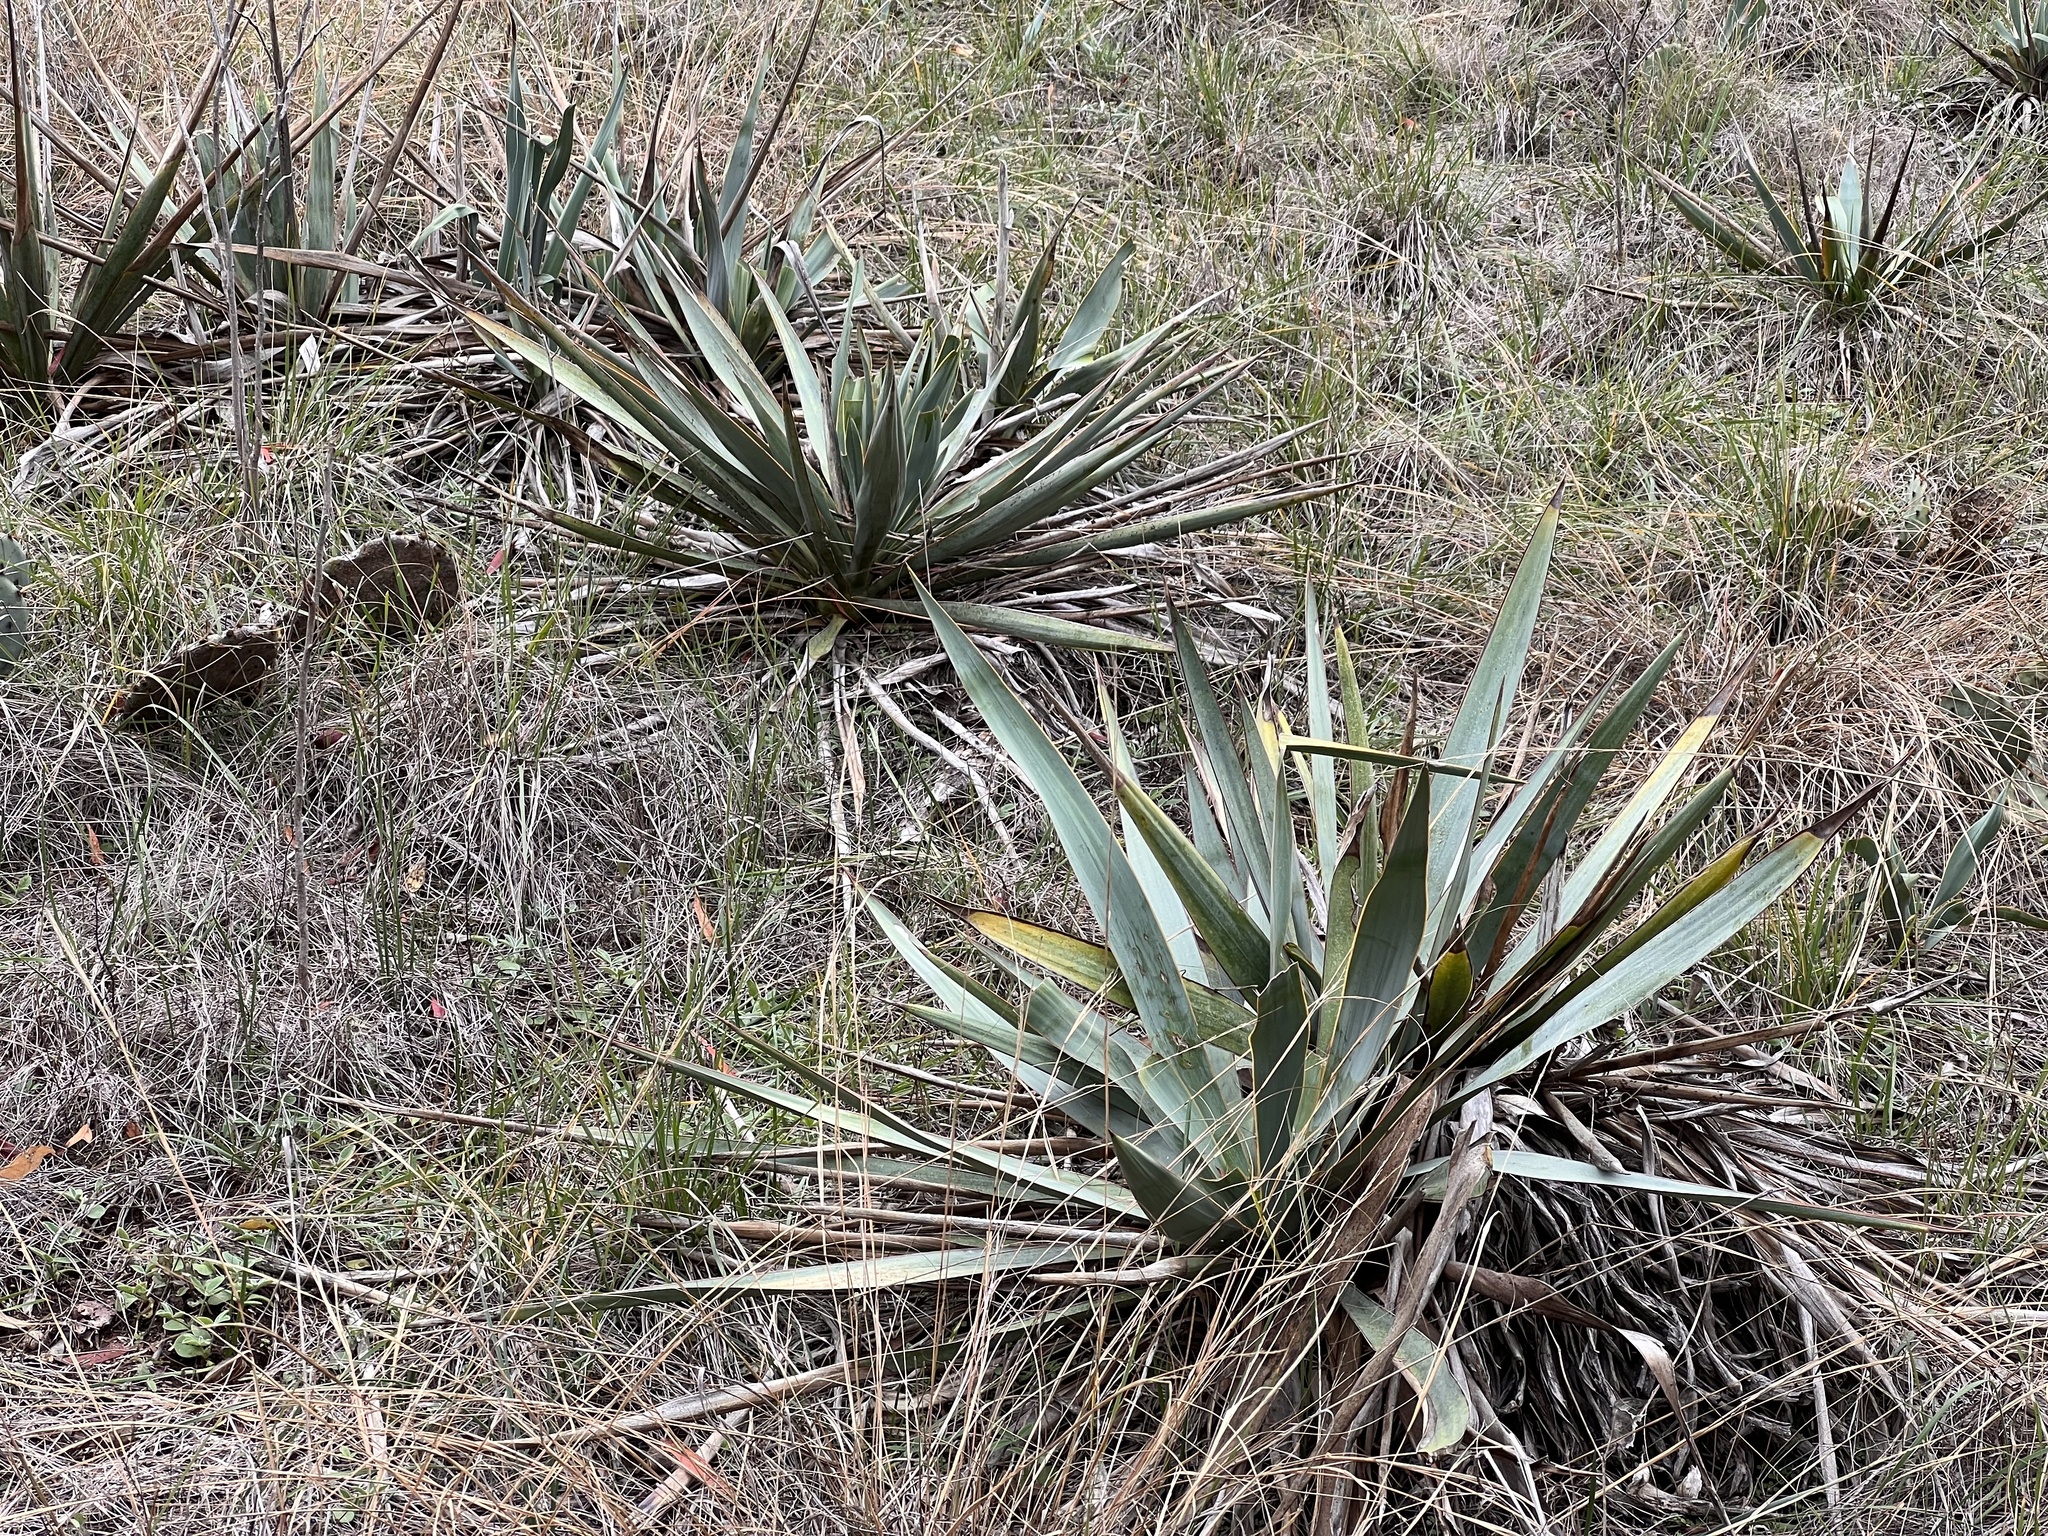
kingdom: Plantae
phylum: Tracheophyta
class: Liliopsida
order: Asparagales
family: Asparagaceae
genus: Yucca
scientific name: Yucca pallida
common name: Pale leaf yucca
